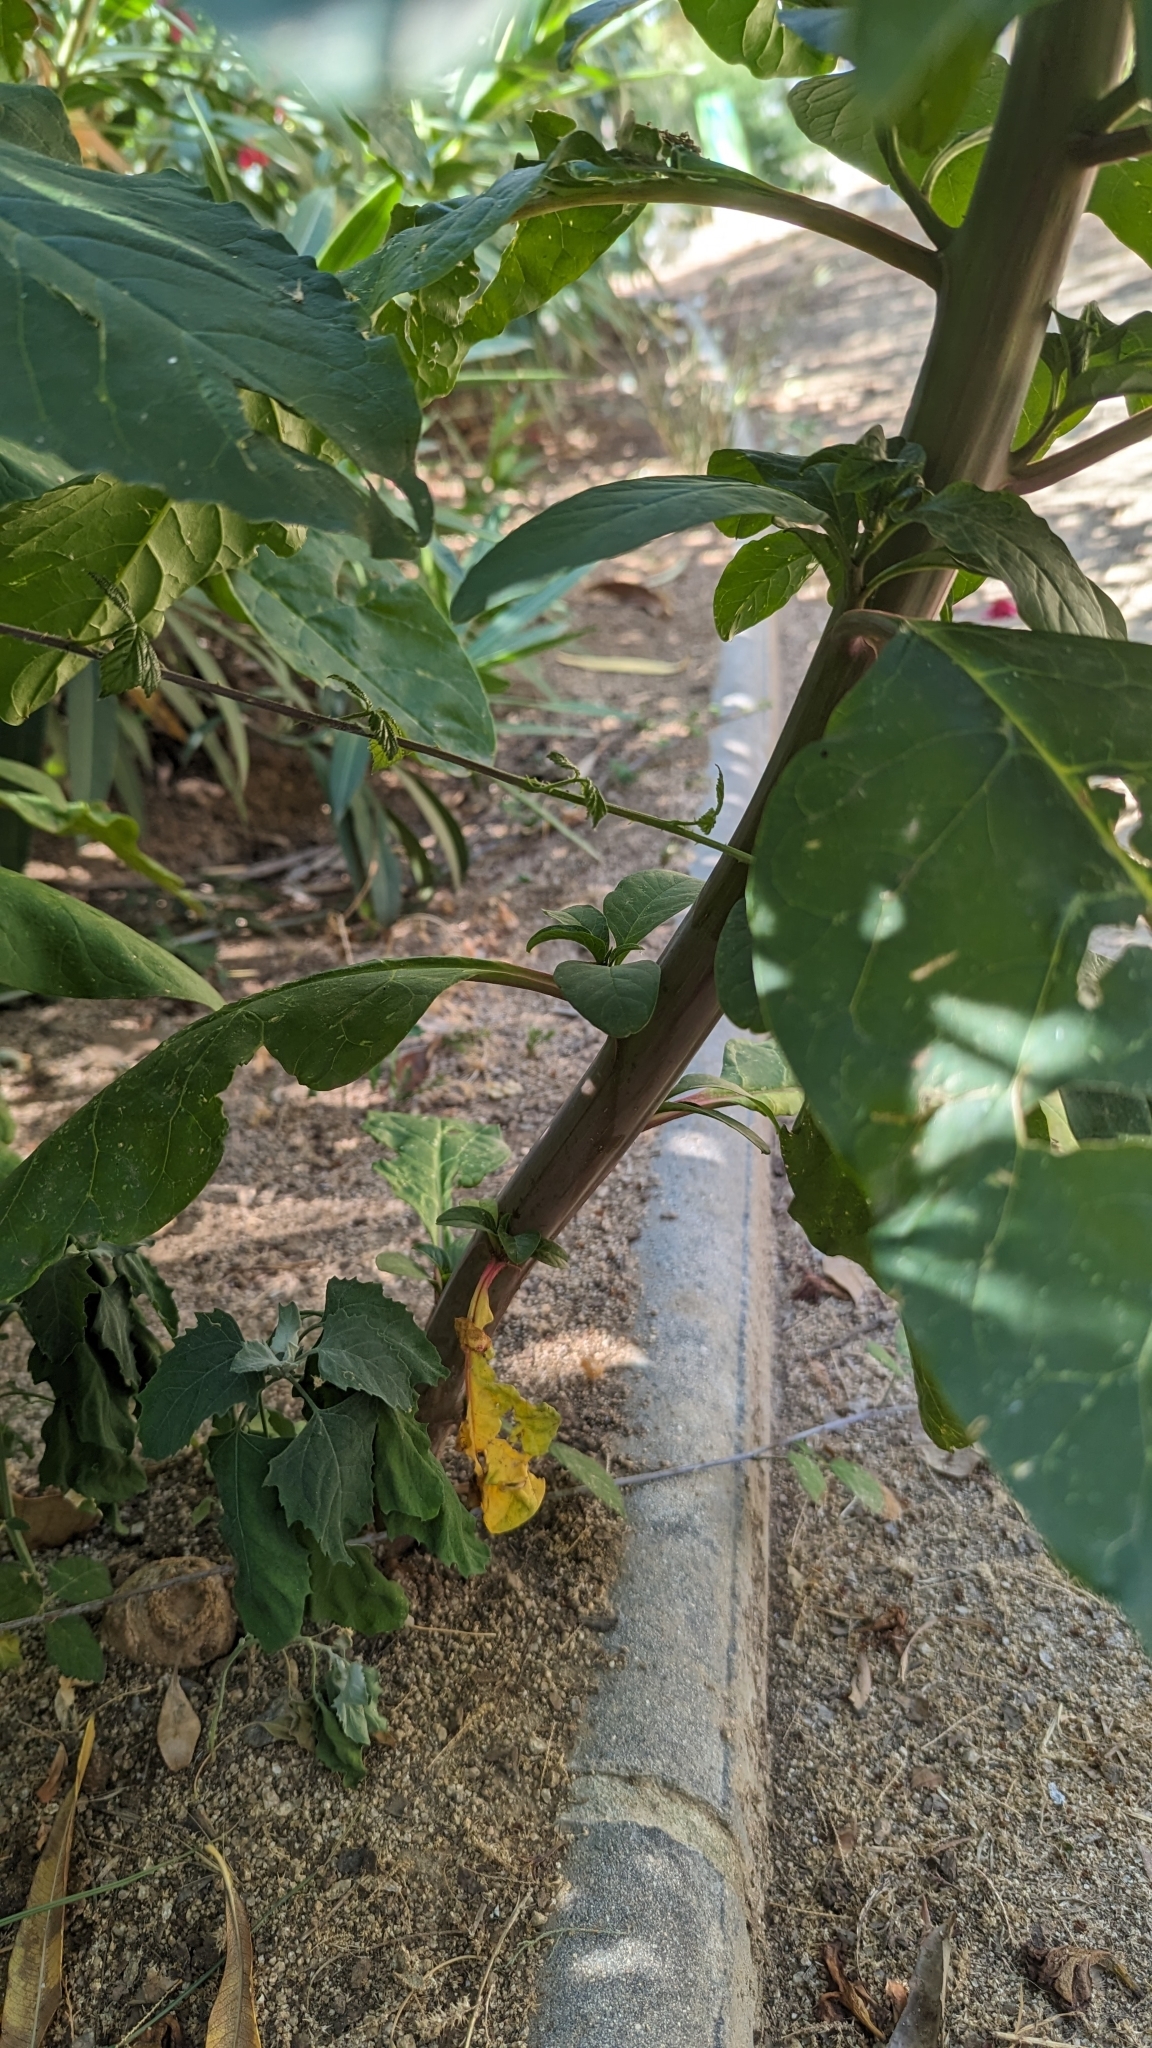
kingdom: Plantae
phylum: Tracheophyta
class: Magnoliopsida
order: Caryophyllales
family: Phytolaccaceae
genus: Phytolacca
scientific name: Phytolacca americana
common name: American pokeweed
